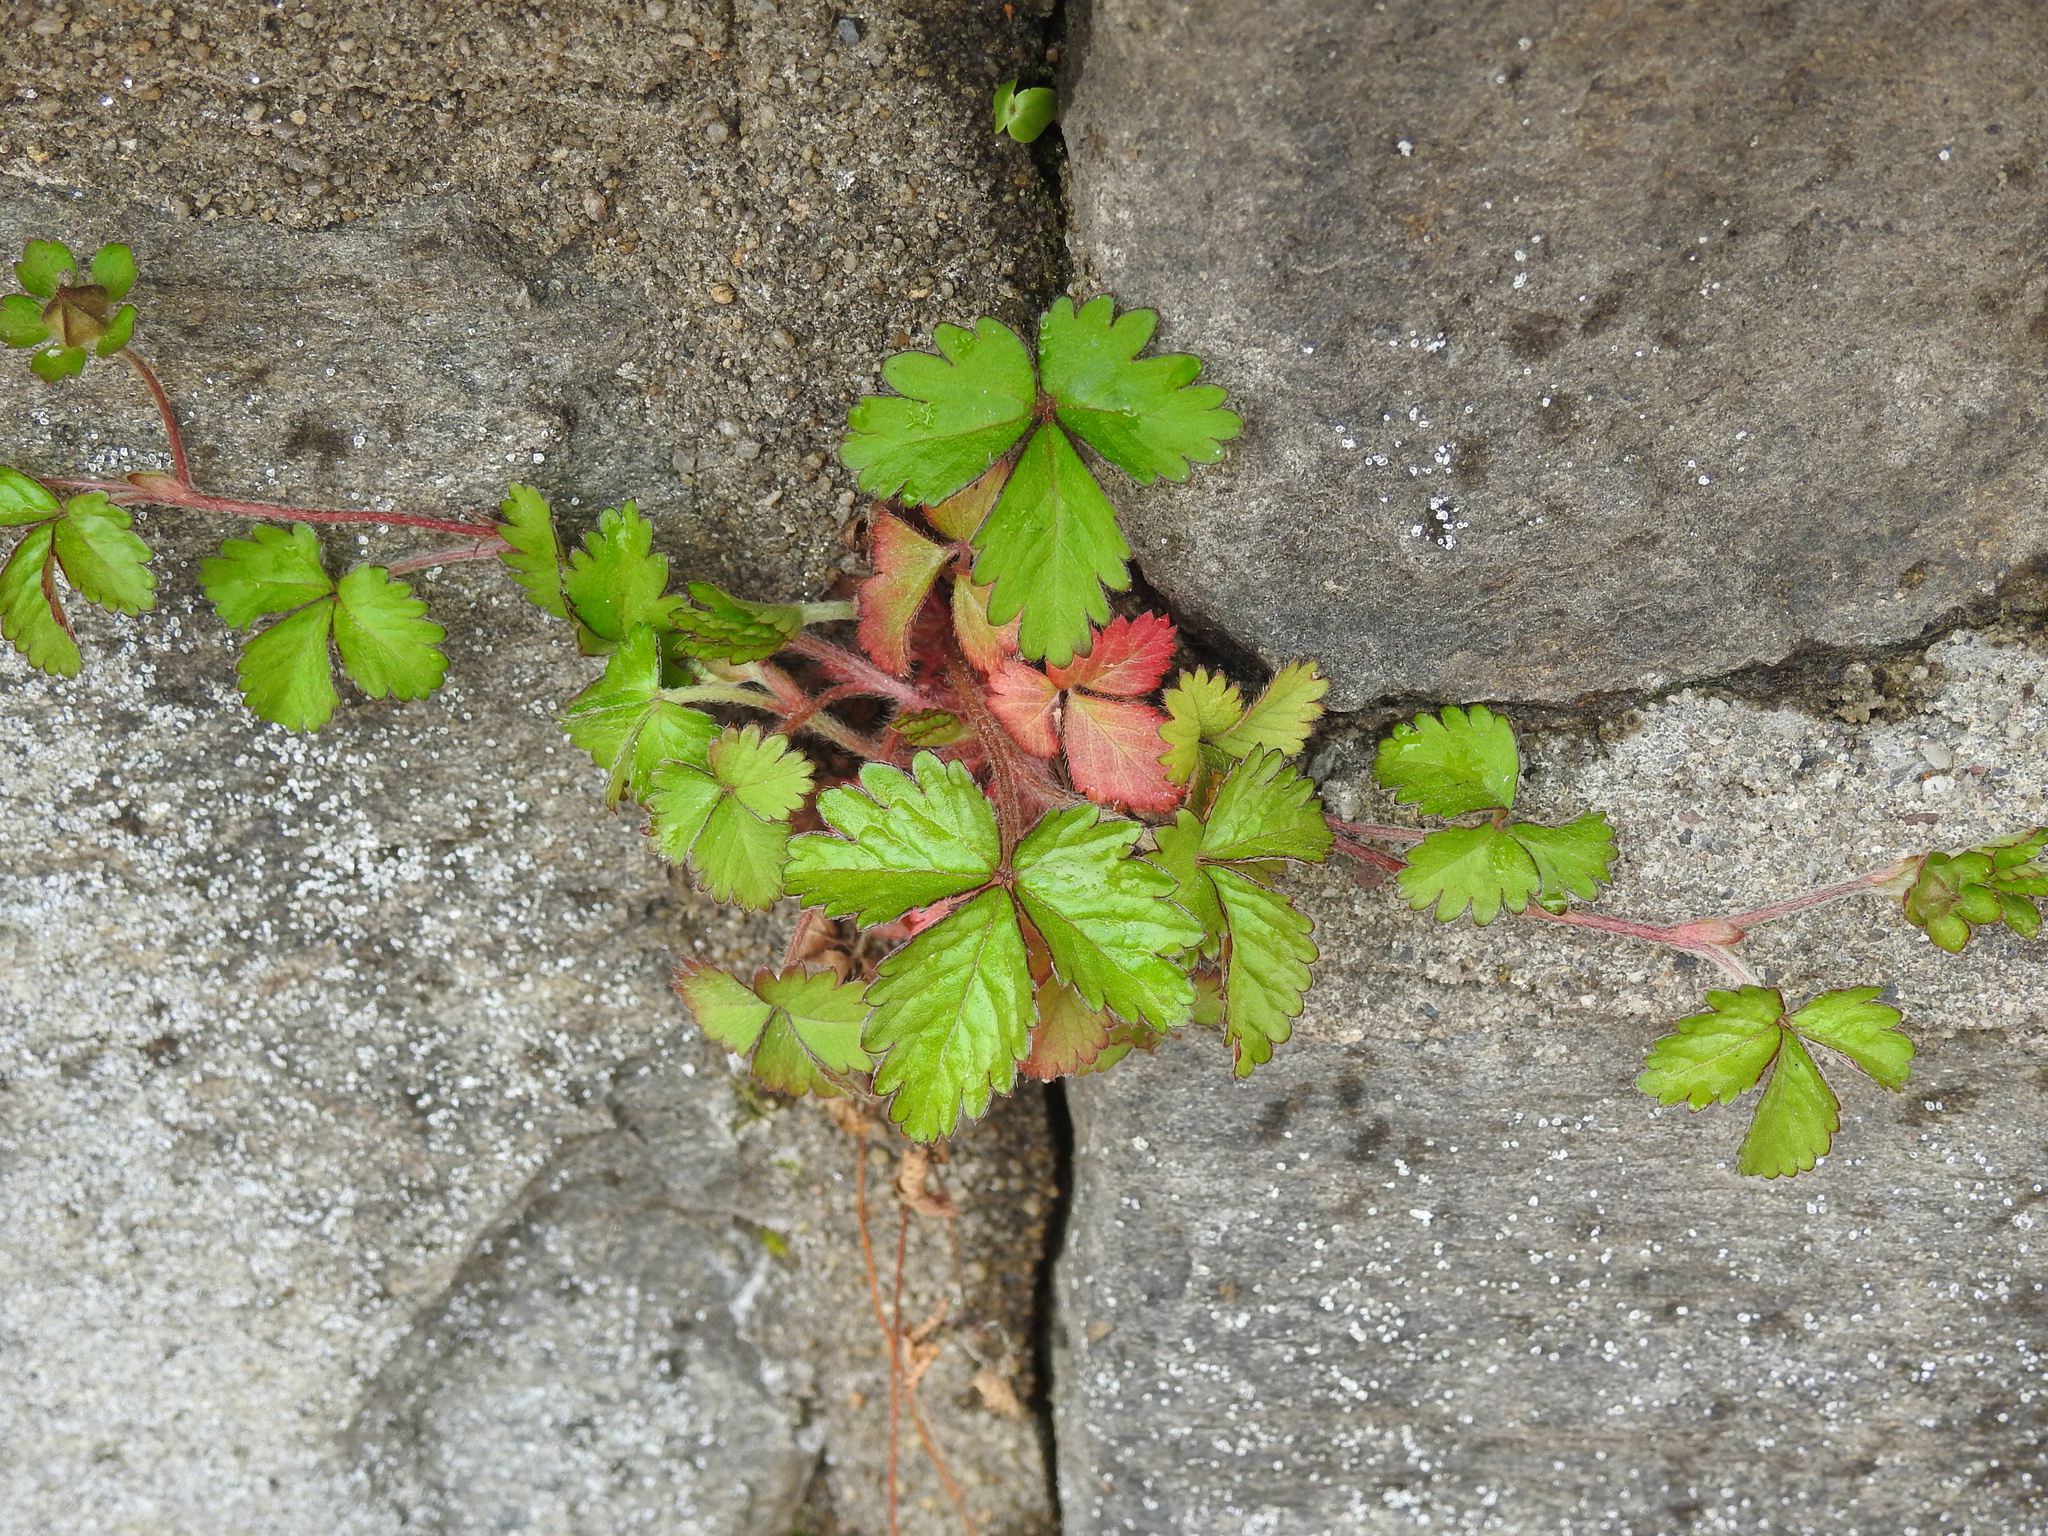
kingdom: Plantae
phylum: Tracheophyta
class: Magnoliopsida
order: Rosales
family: Rosaceae
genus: Potentilla
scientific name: Potentilla indica
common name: Yellow-flowered strawberry
